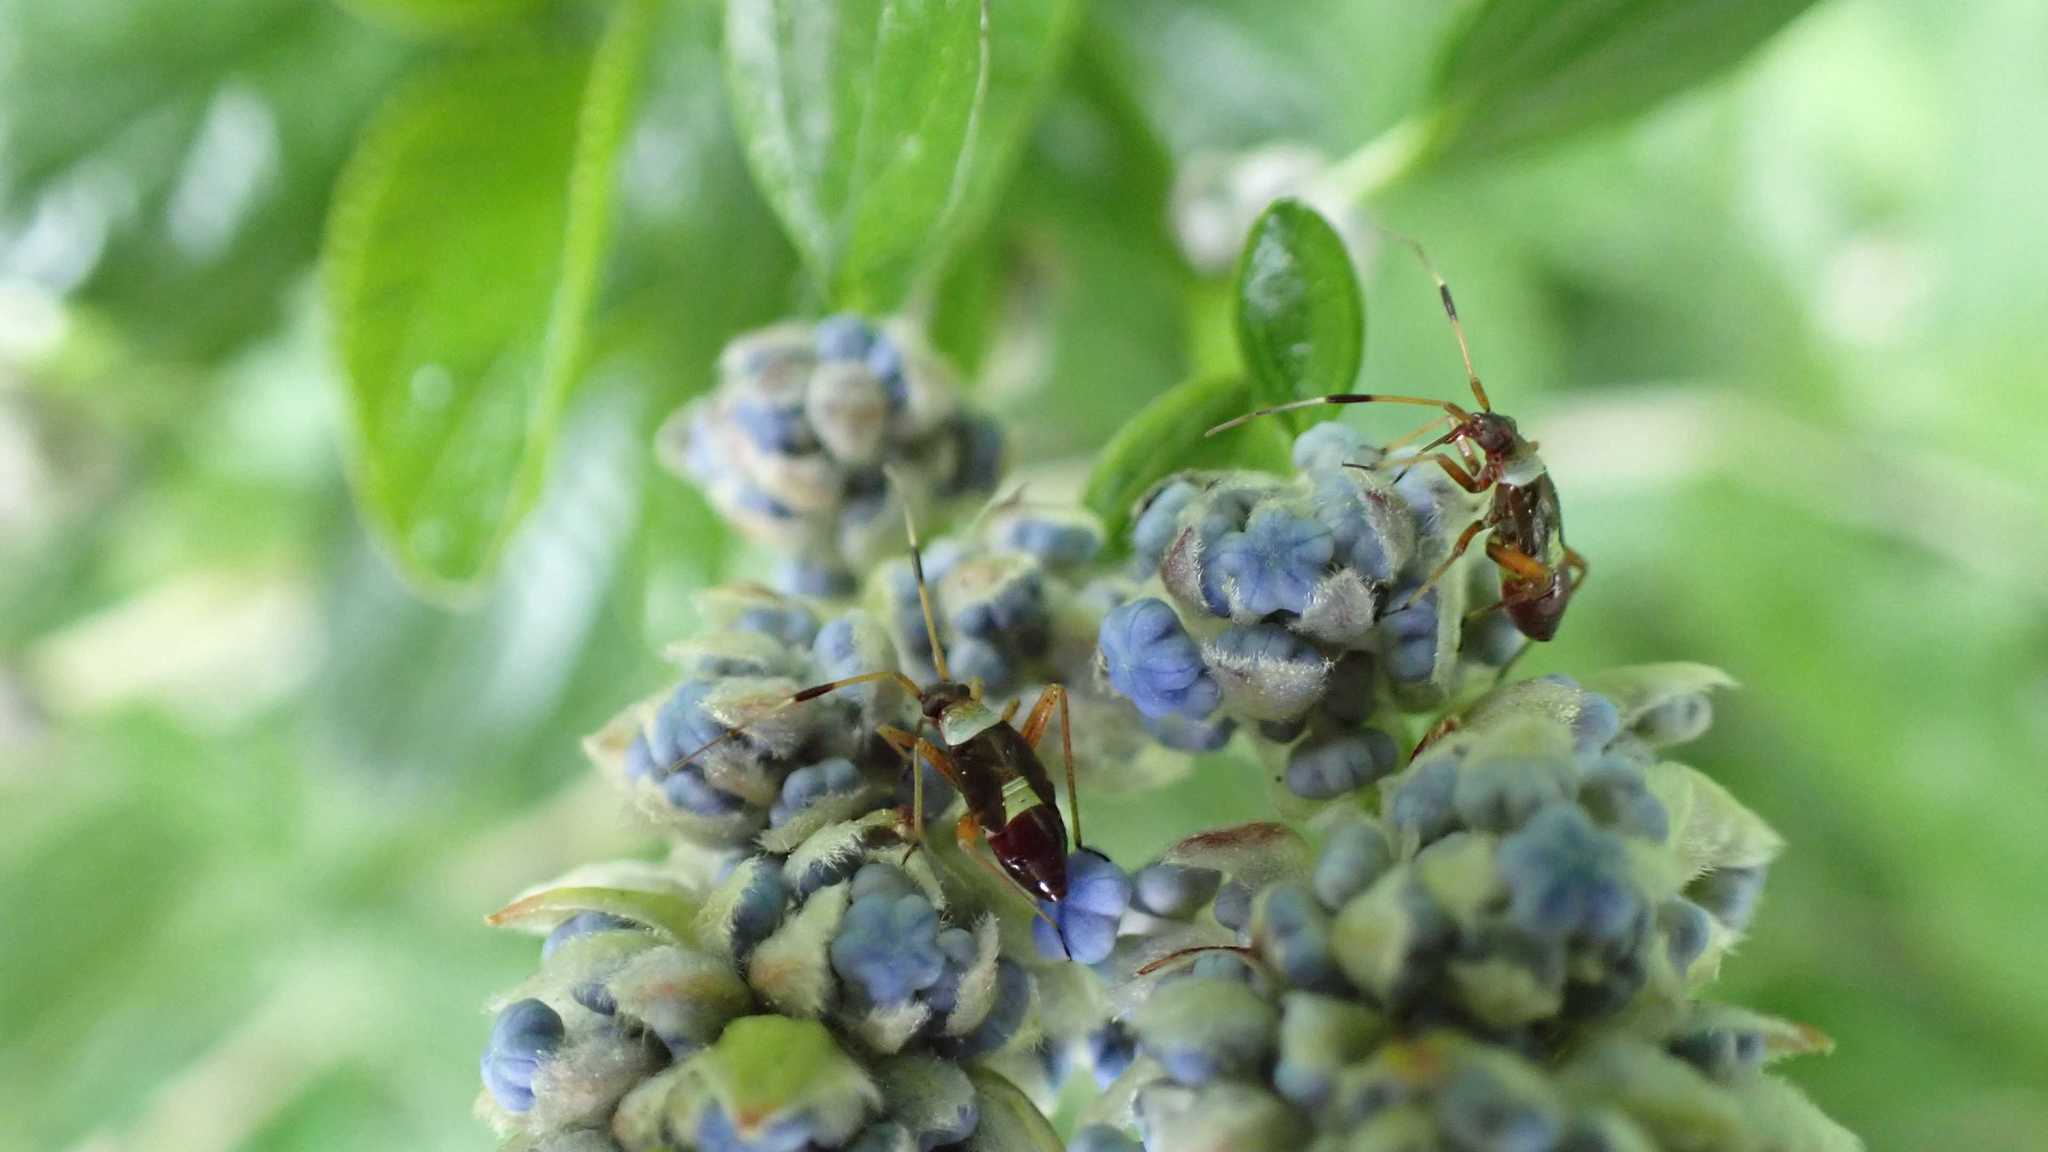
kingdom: Animalia
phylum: Arthropoda
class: Insecta
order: Hemiptera
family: Miridae
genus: Closterotomus
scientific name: Closterotomus biclavatus
